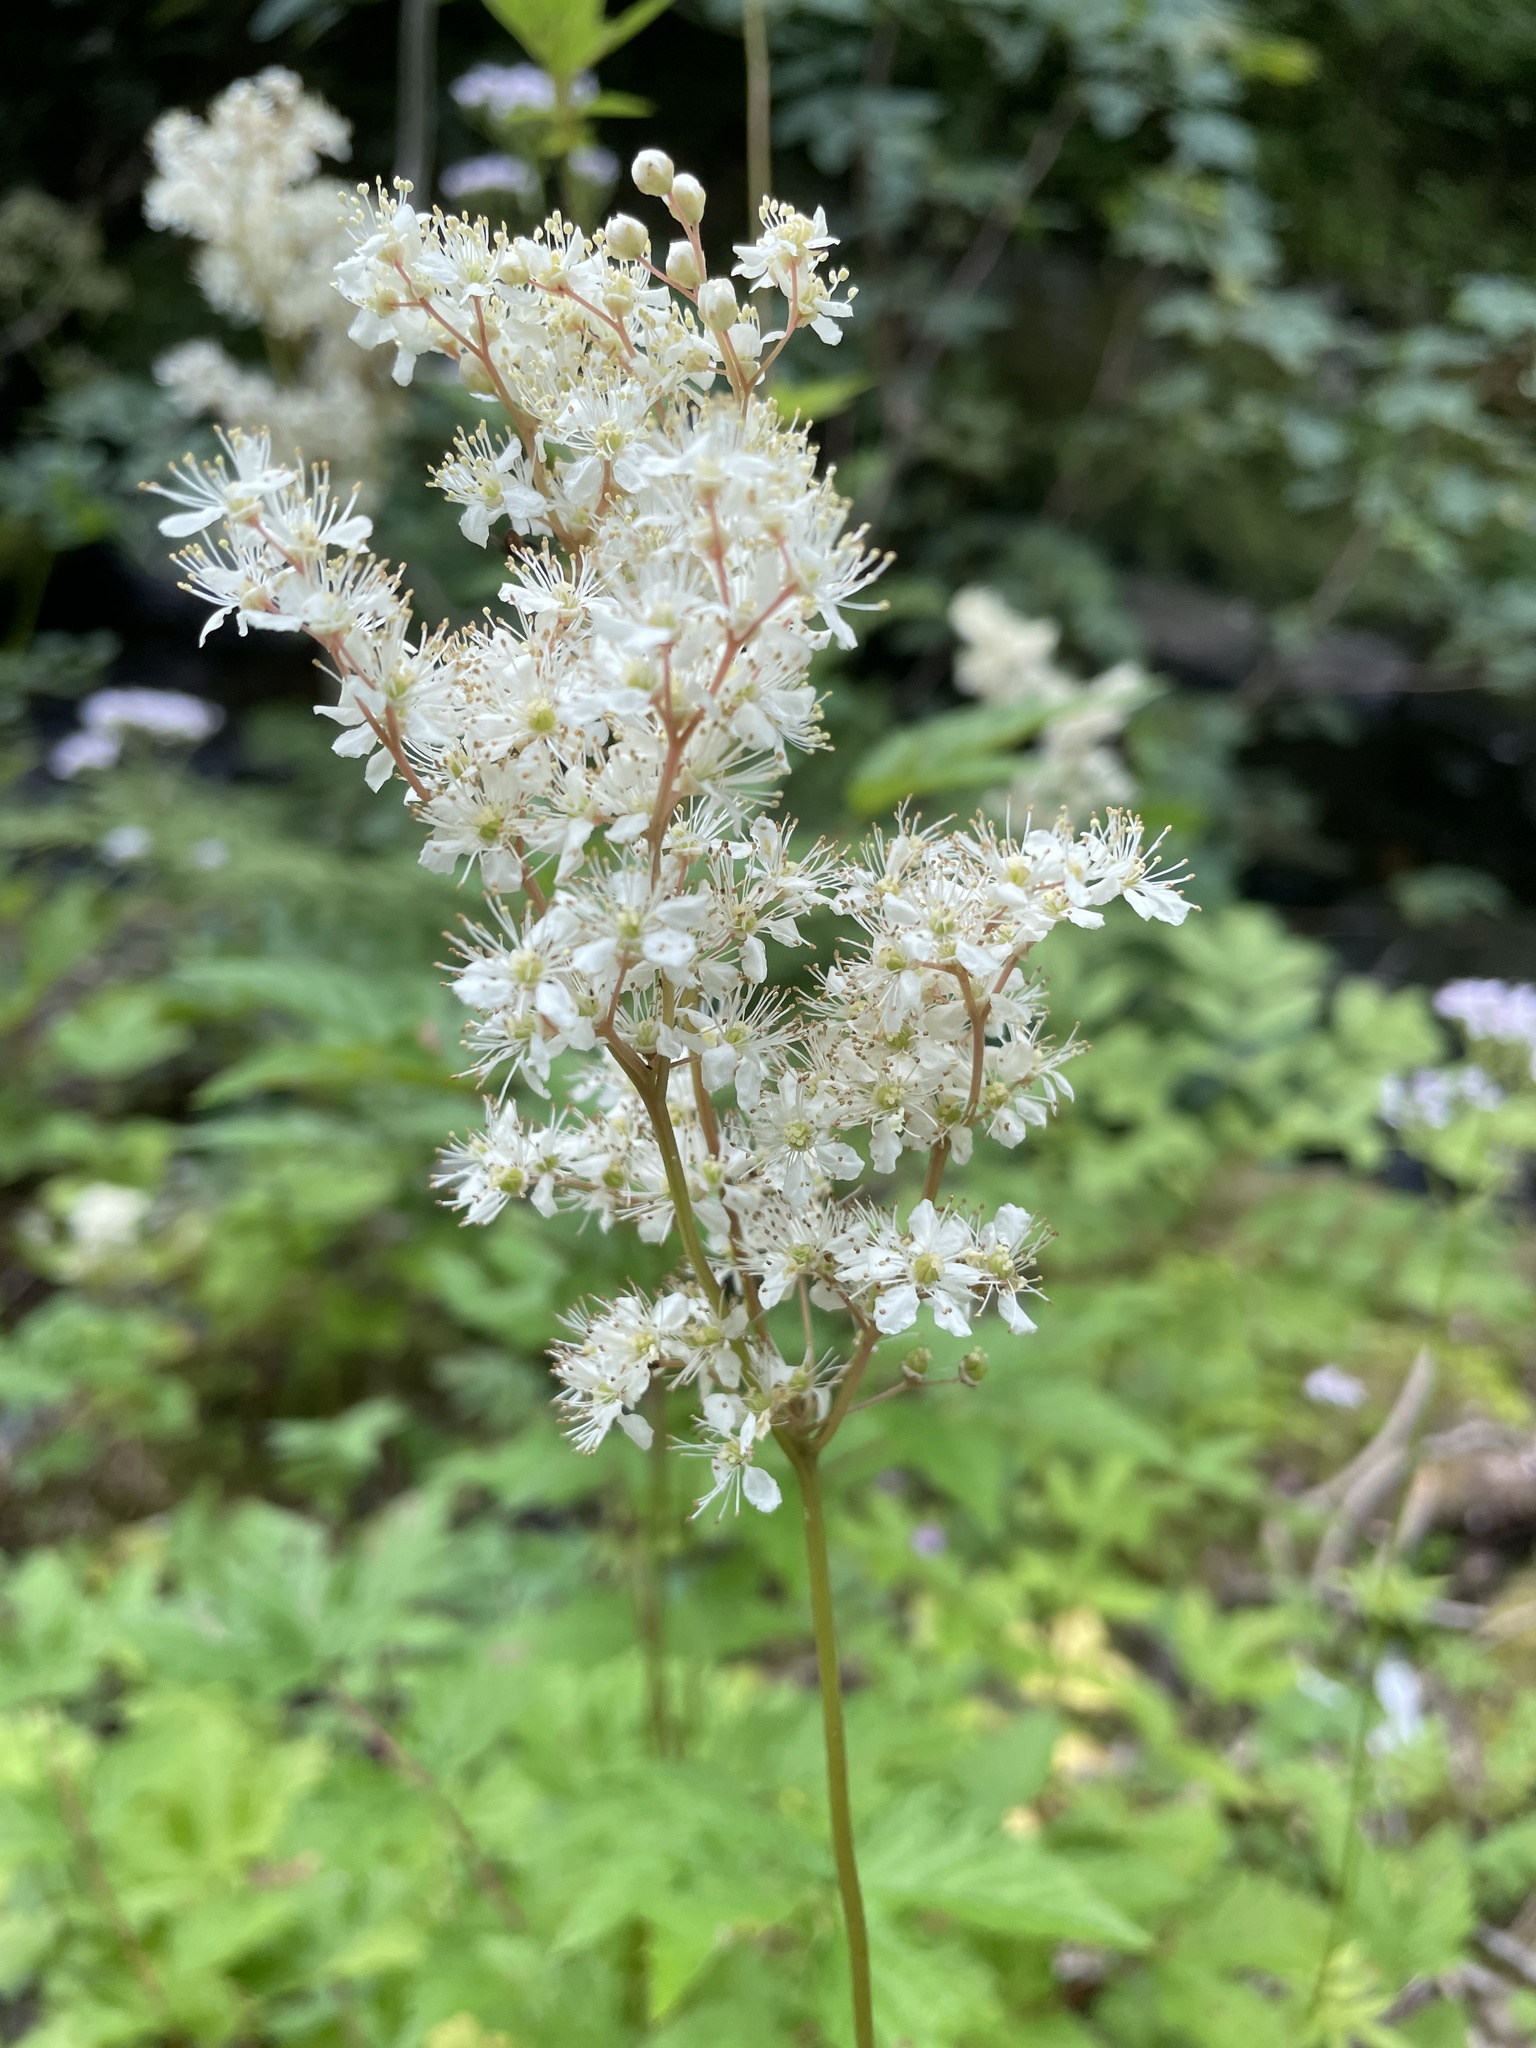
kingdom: Plantae
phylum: Tracheophyta
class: Magnoliopsida
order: Rosales
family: Rosaceae
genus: Filipendula
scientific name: Filipendula ulmaria
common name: Meadowsweet
